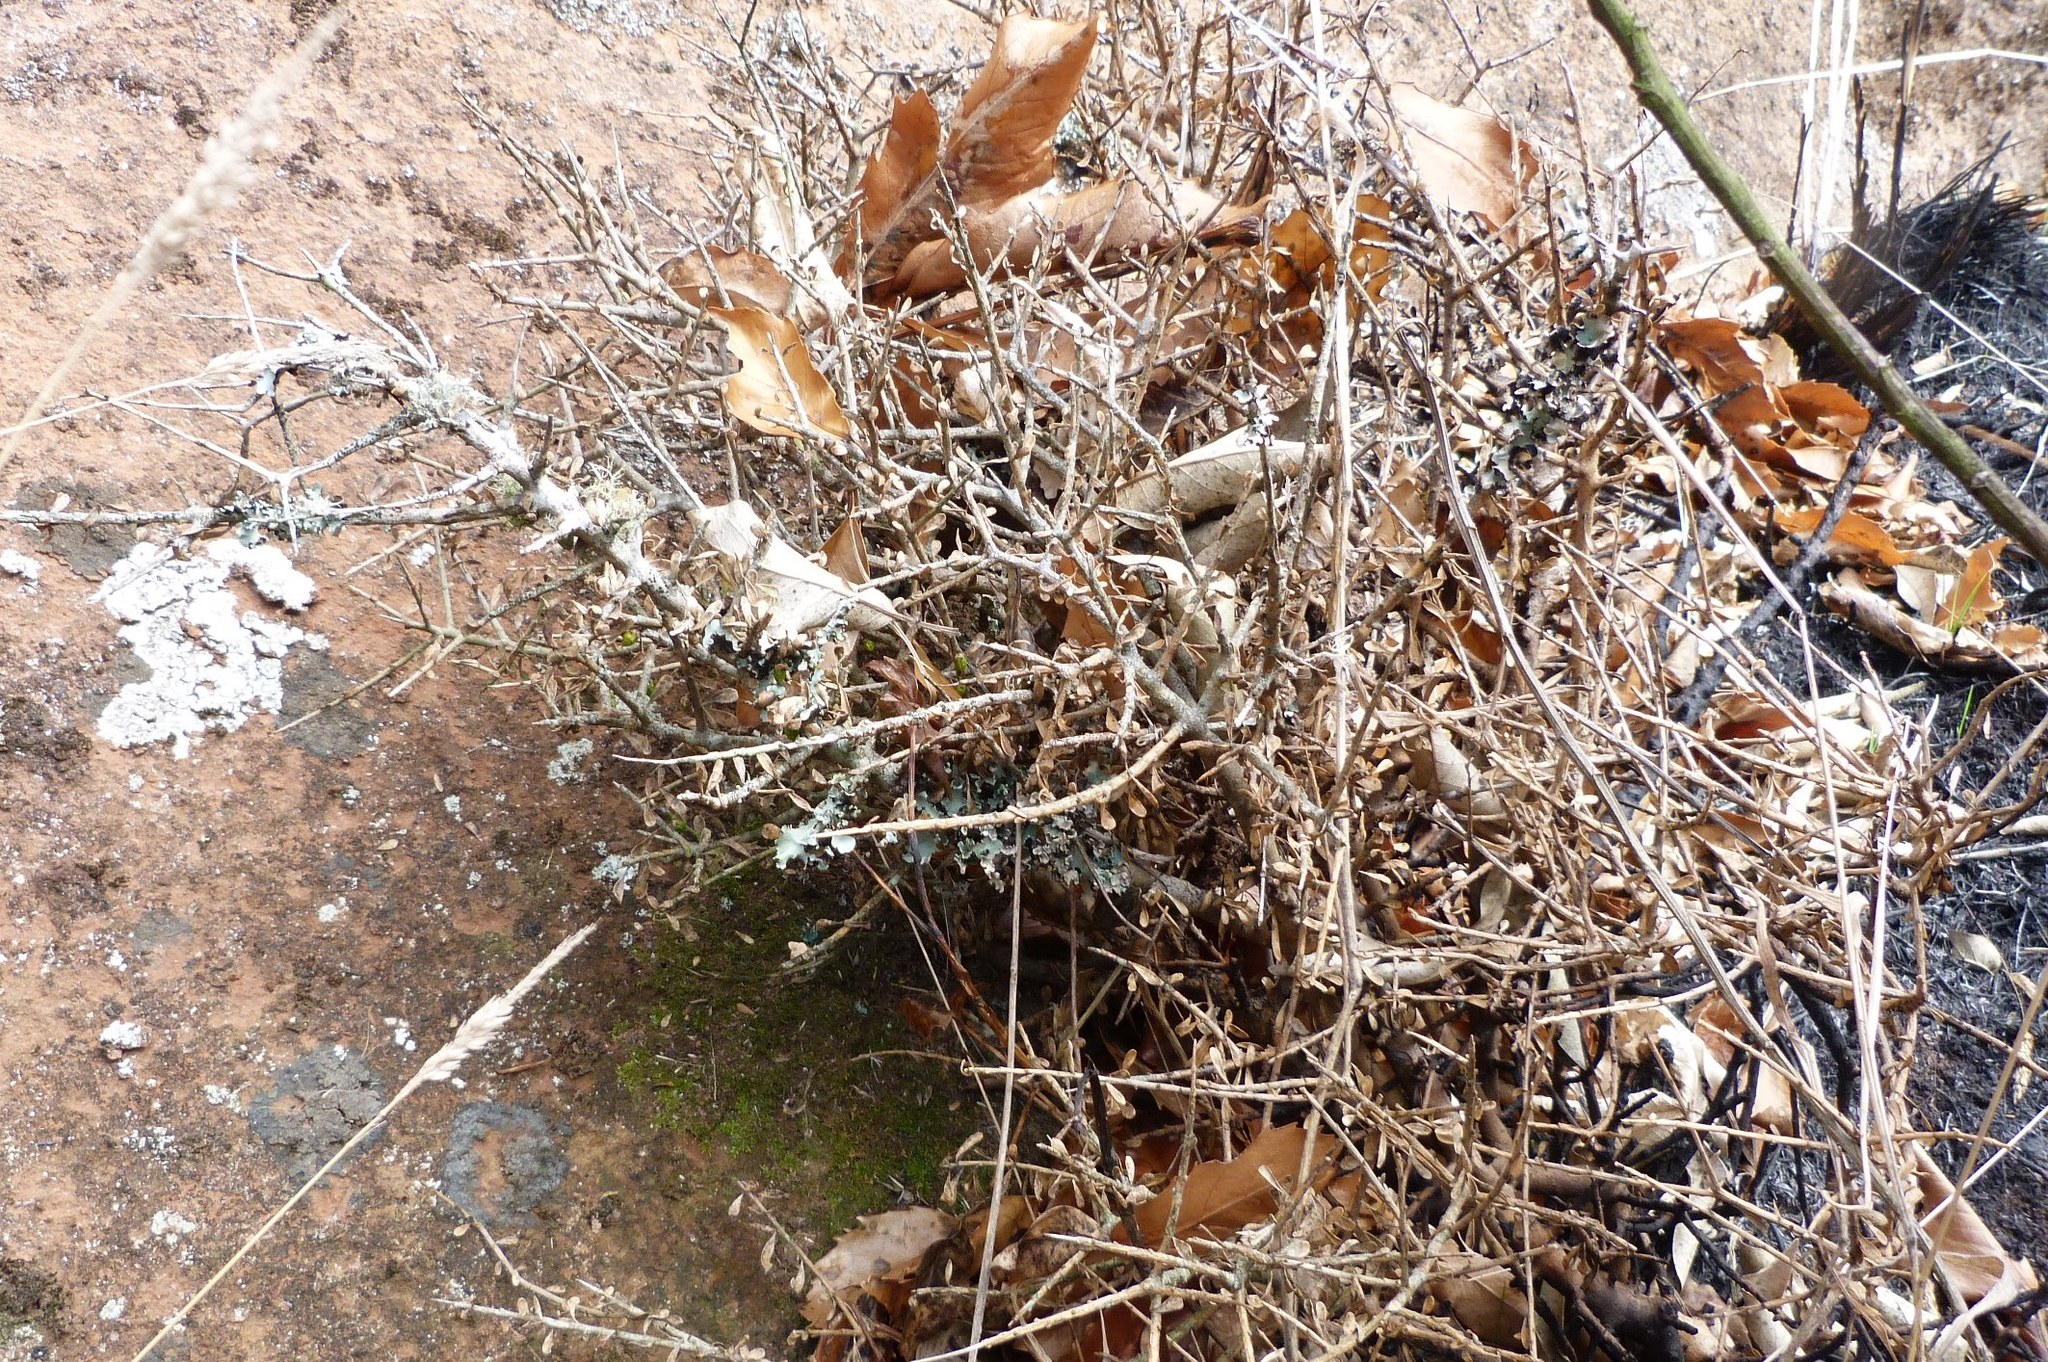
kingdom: Plantae
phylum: Tracheophyta
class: Magnoliopsida
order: Malpighiales
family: Violaceae
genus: Melicytus
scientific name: Melicytus alpinus
